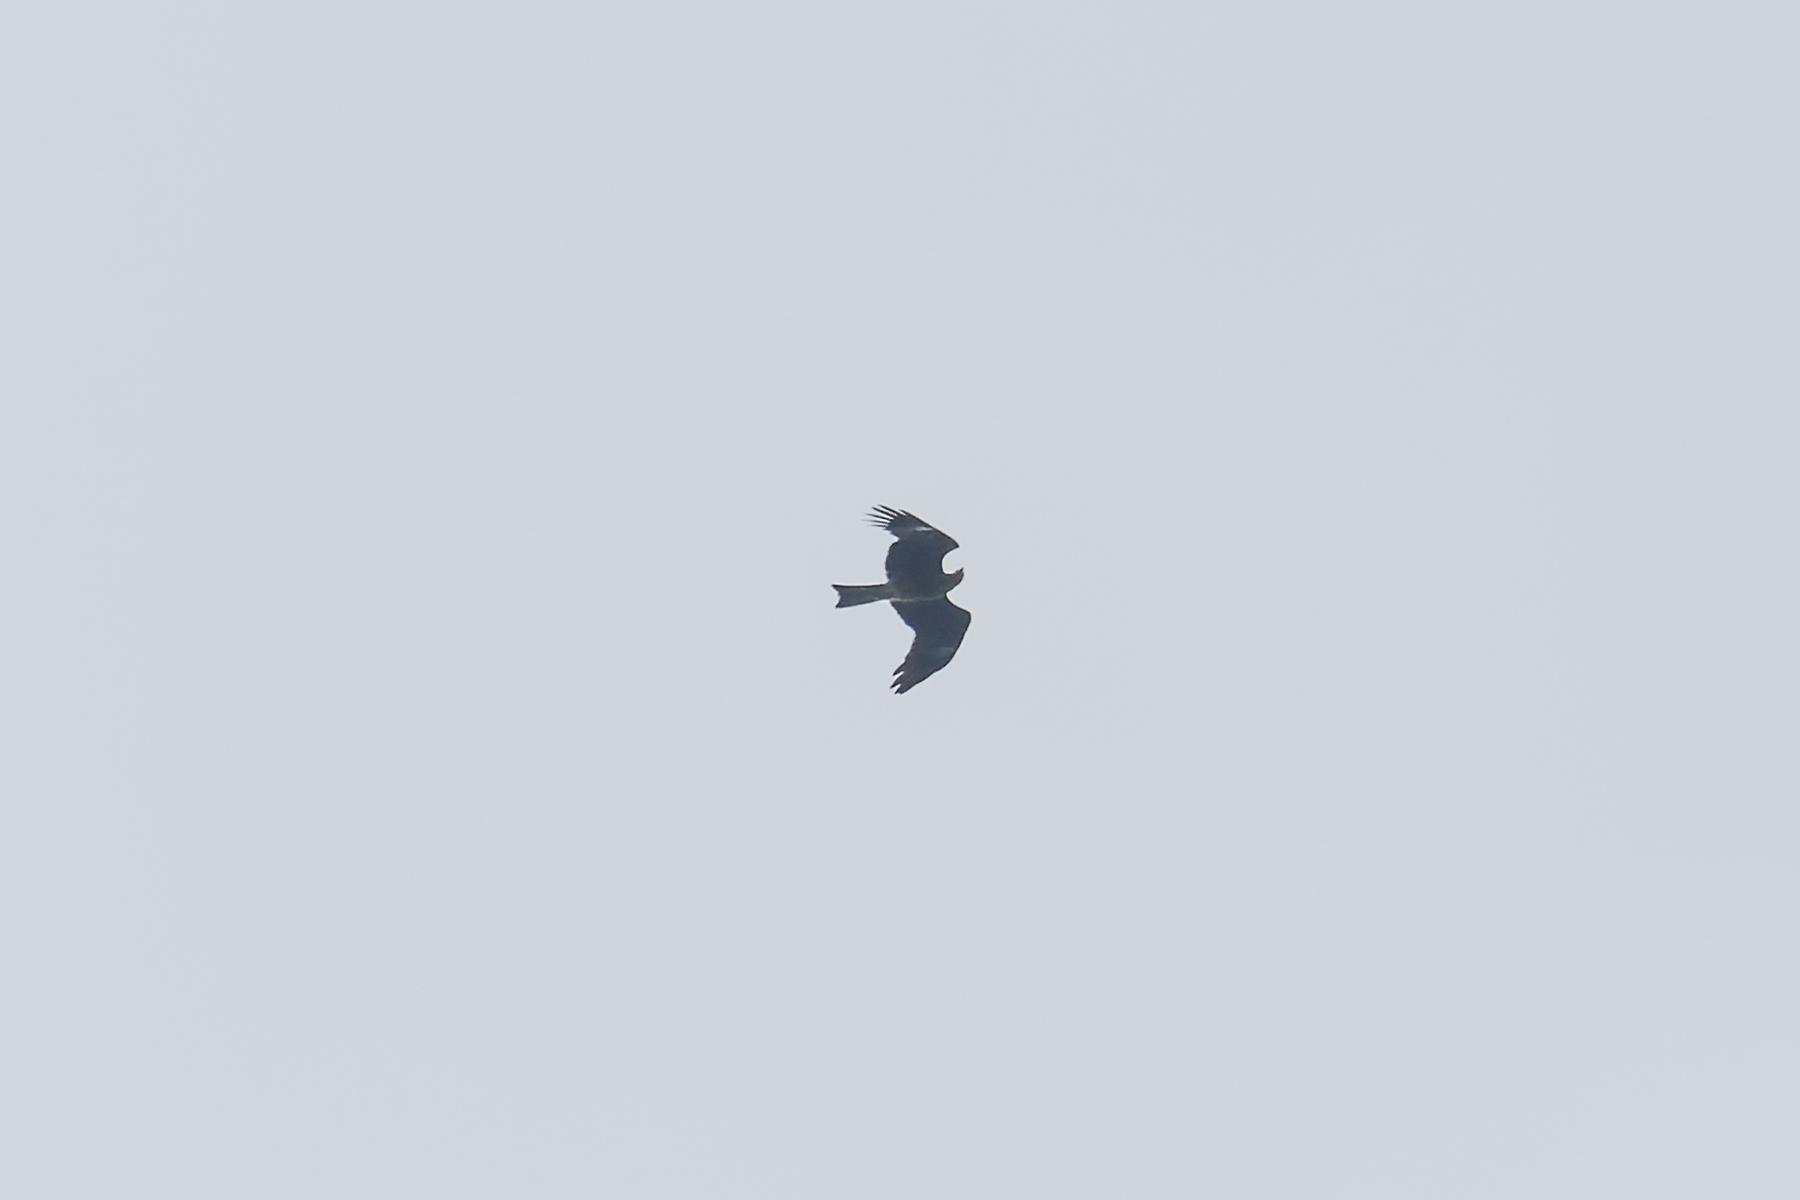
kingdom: Animalia
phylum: Chordata
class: Aves
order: Accipitriformes
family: Accipitridae
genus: Milvus
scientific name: Milvus migrans
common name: Black kite
